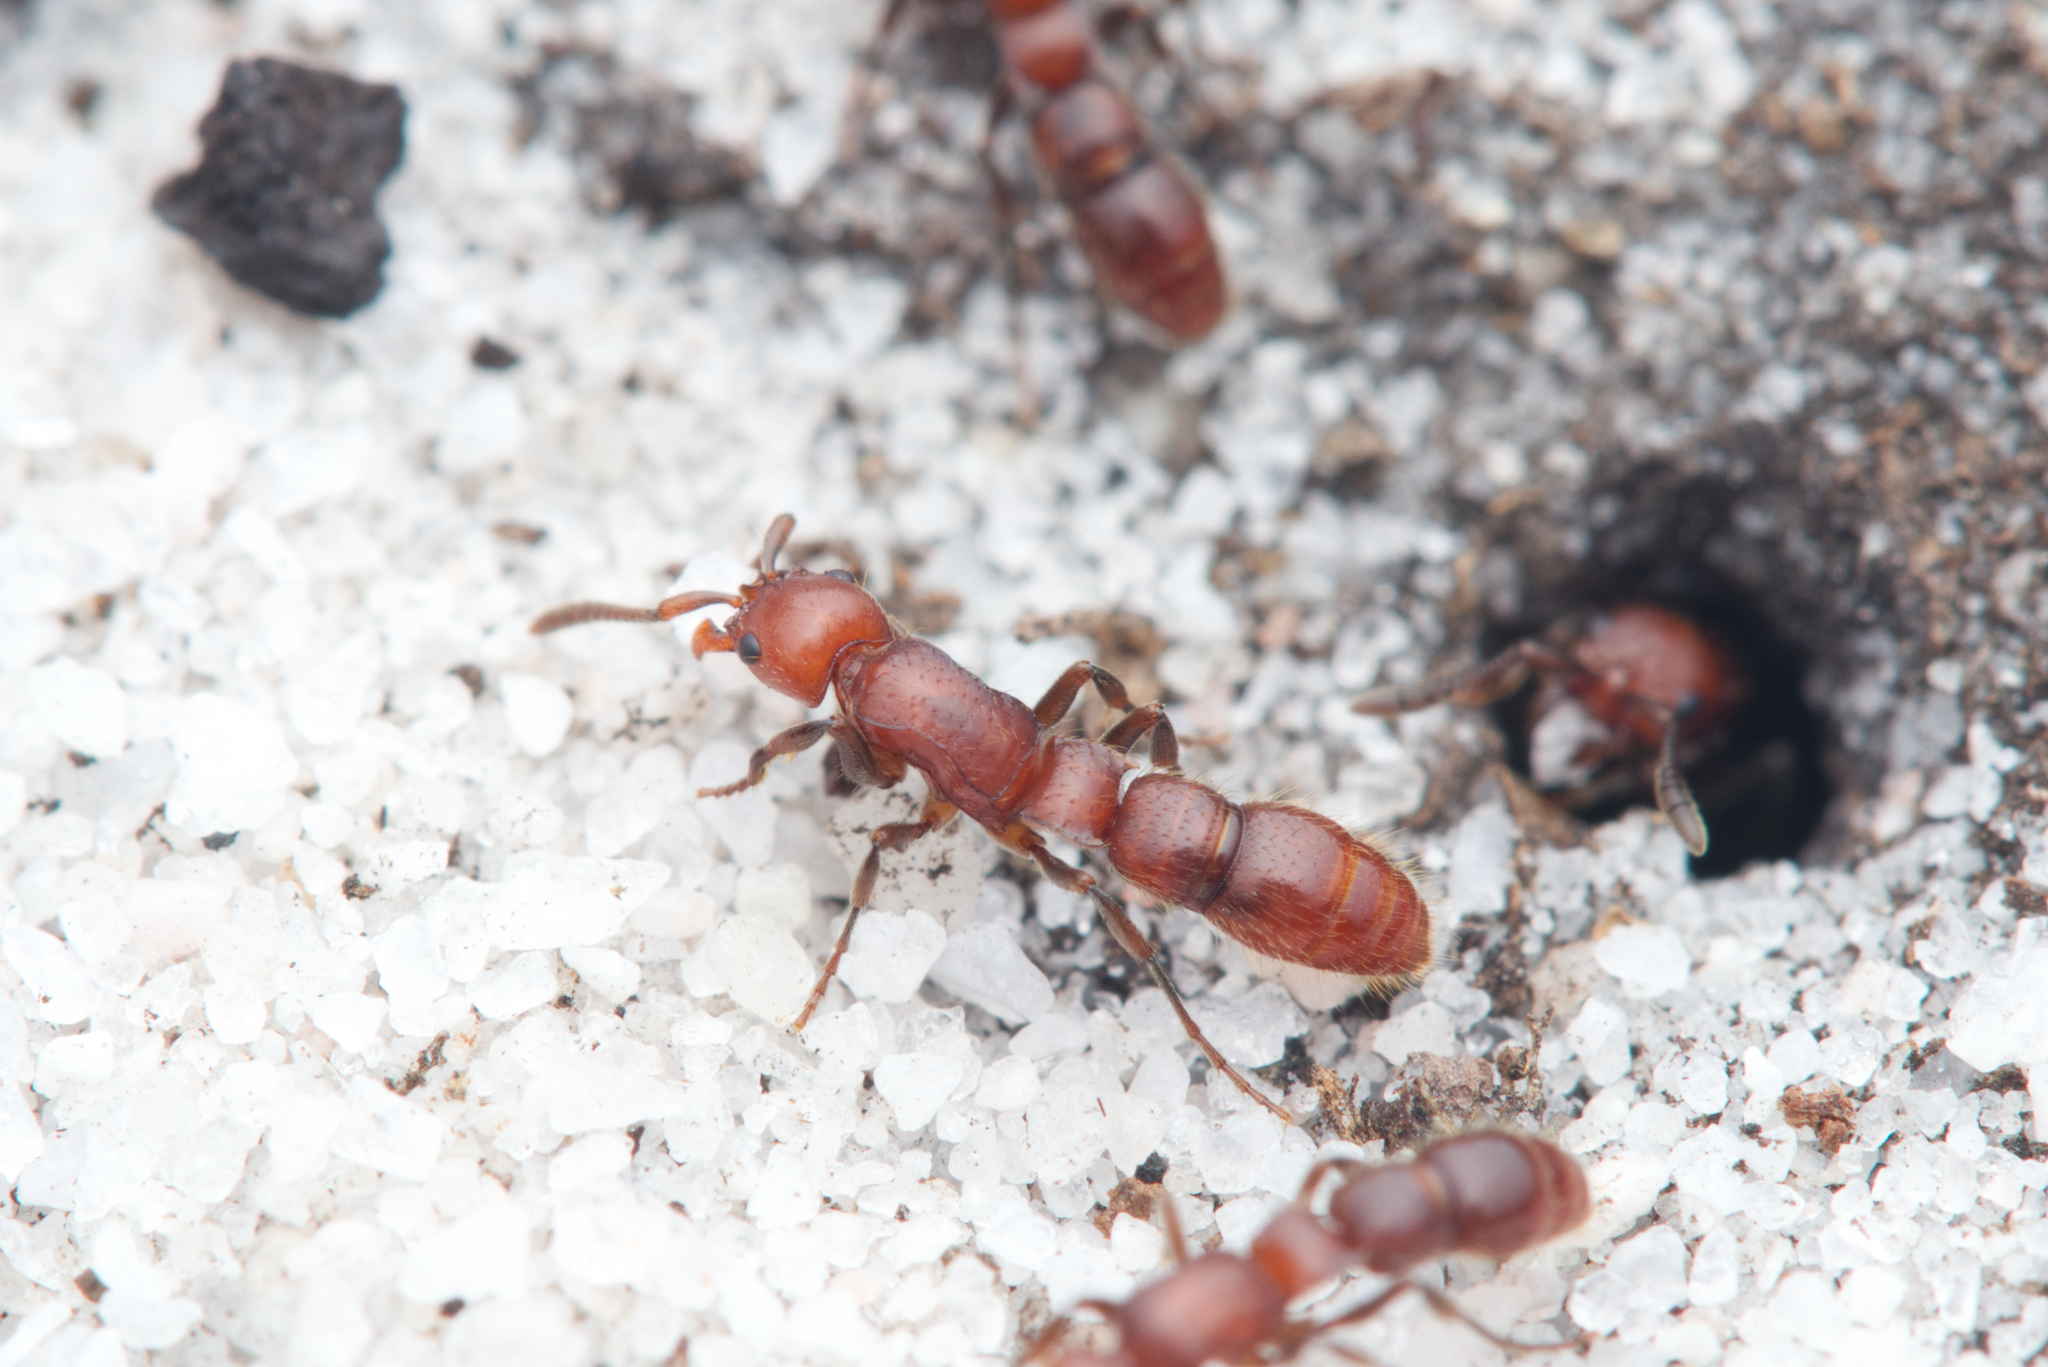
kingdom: Animalia
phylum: Arthropoda
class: Insecta
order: Hymenoptera
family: Formicidae
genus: Lioponera
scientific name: Lioponera
